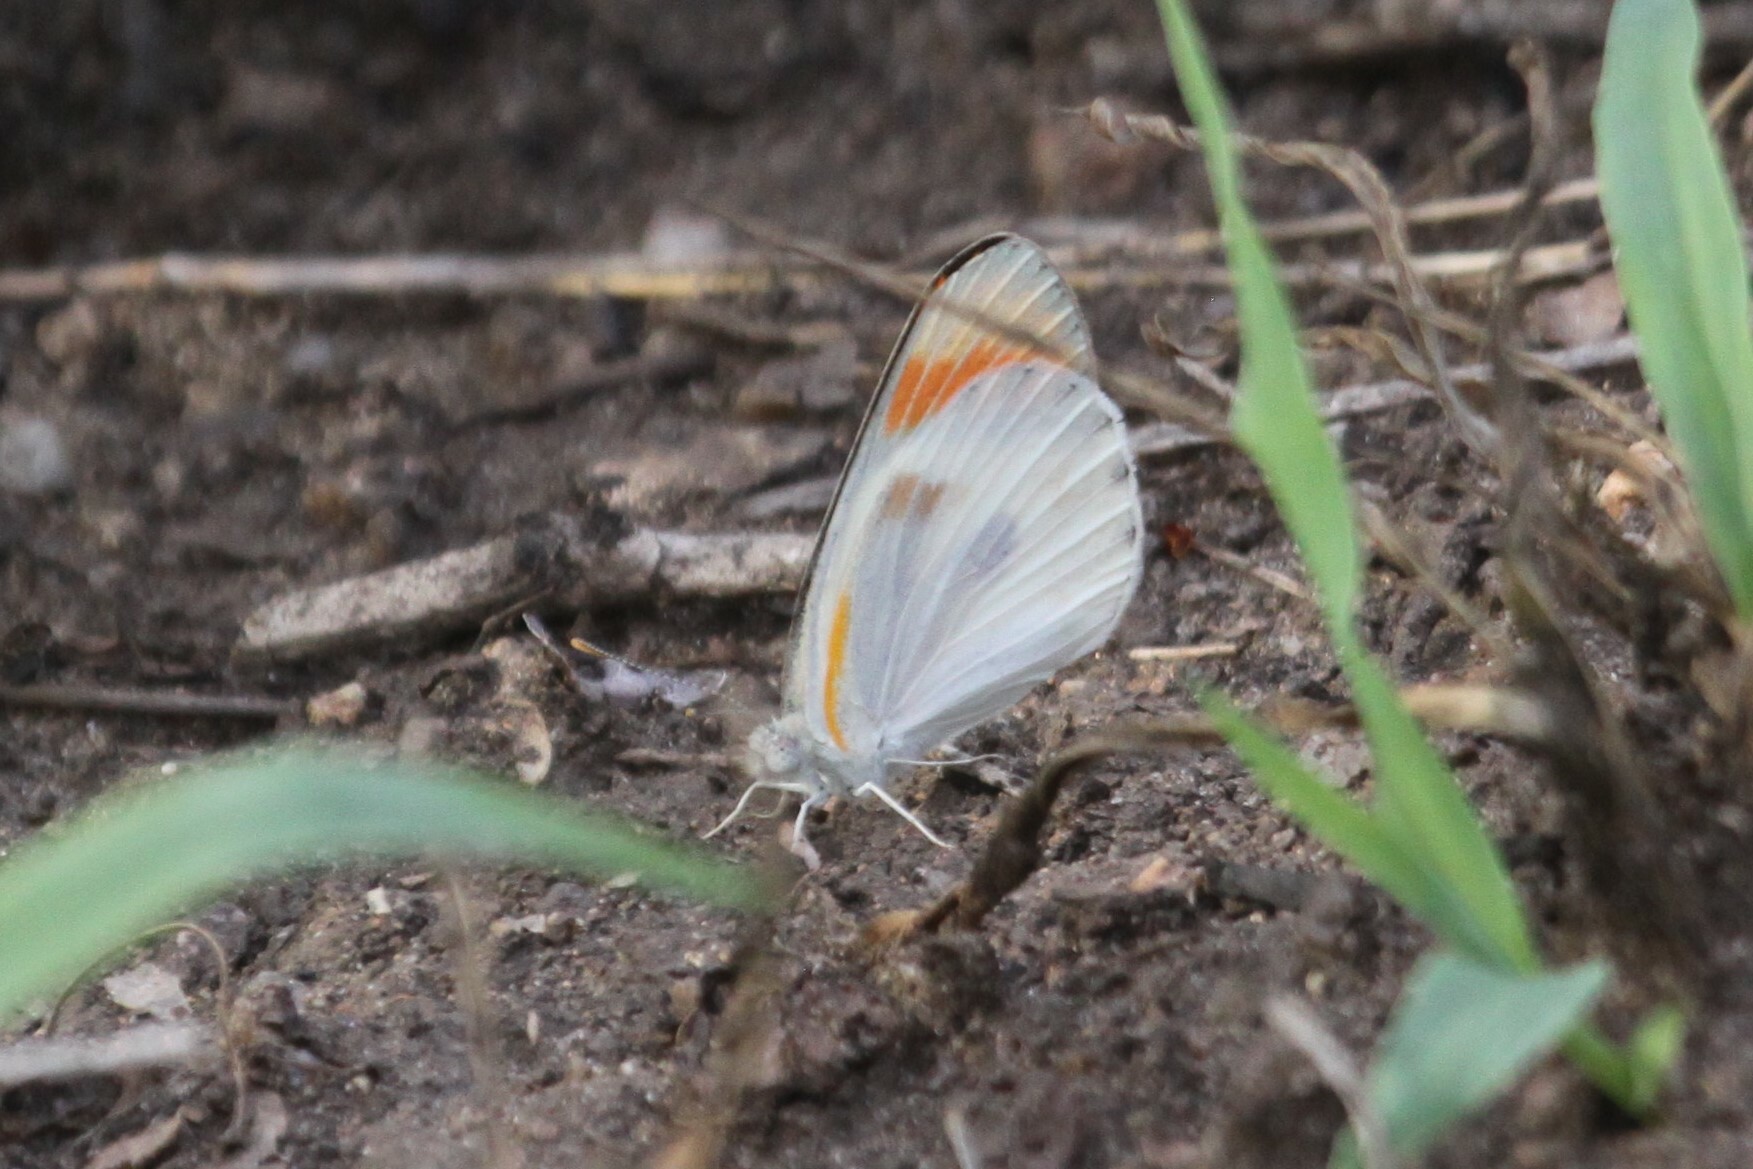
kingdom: Animalia
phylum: Arthropoda
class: Insecta
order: Lepidoptera
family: Pieridae
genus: Colotis
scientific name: Colotis evenina
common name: Common orange tip
